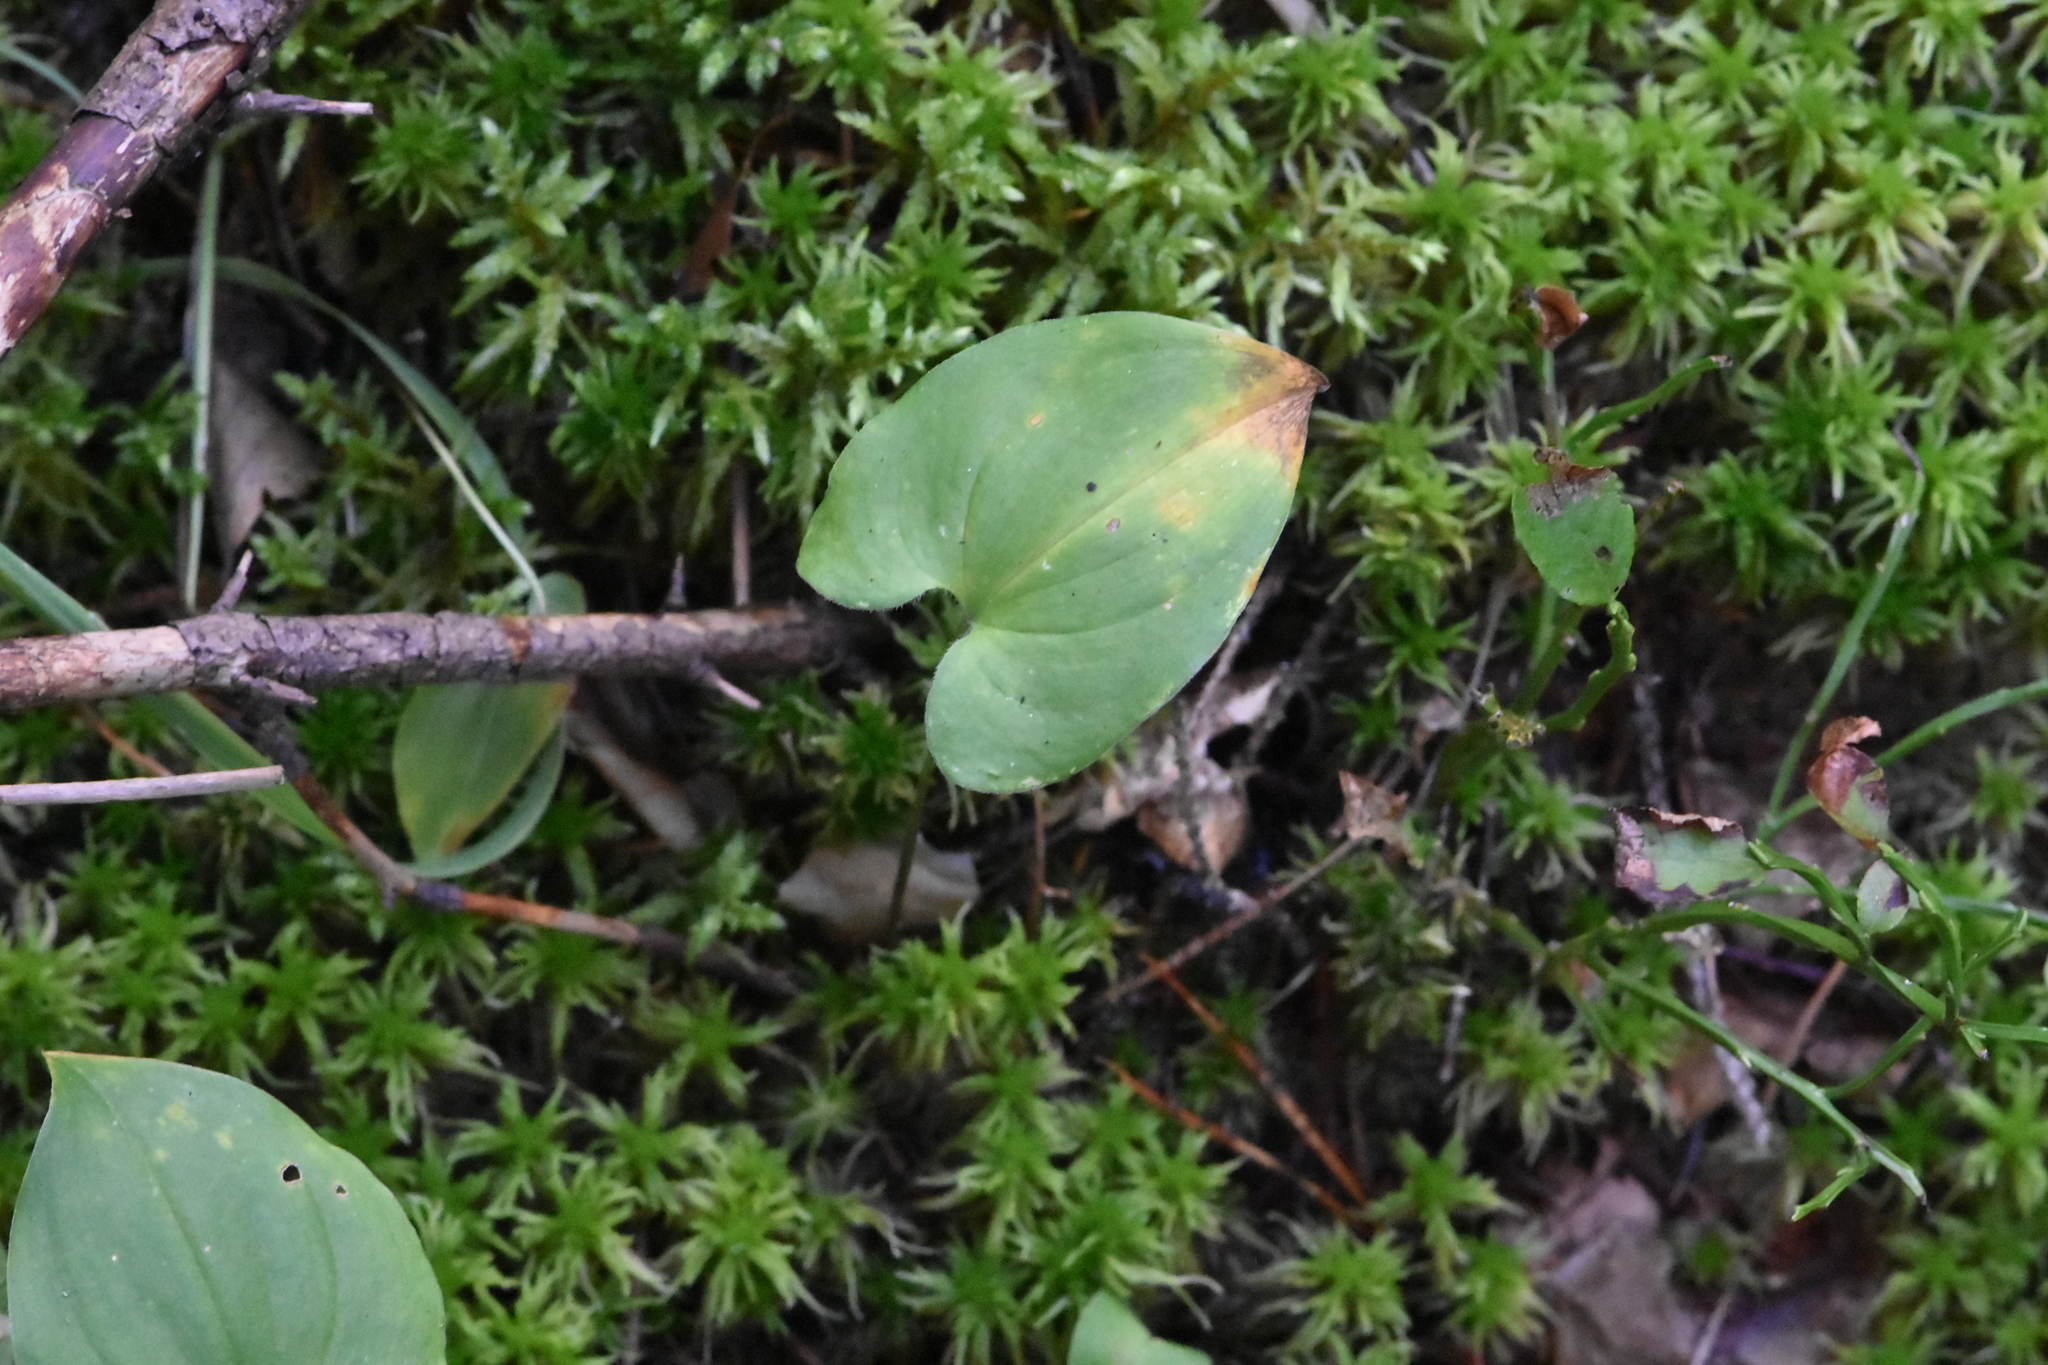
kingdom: Plantae
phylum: Tracheophyta
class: Liliopsida
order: Asparagales
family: Asparagaceae
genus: Maianthemum
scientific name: Maianthemum bifolium
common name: May lily
